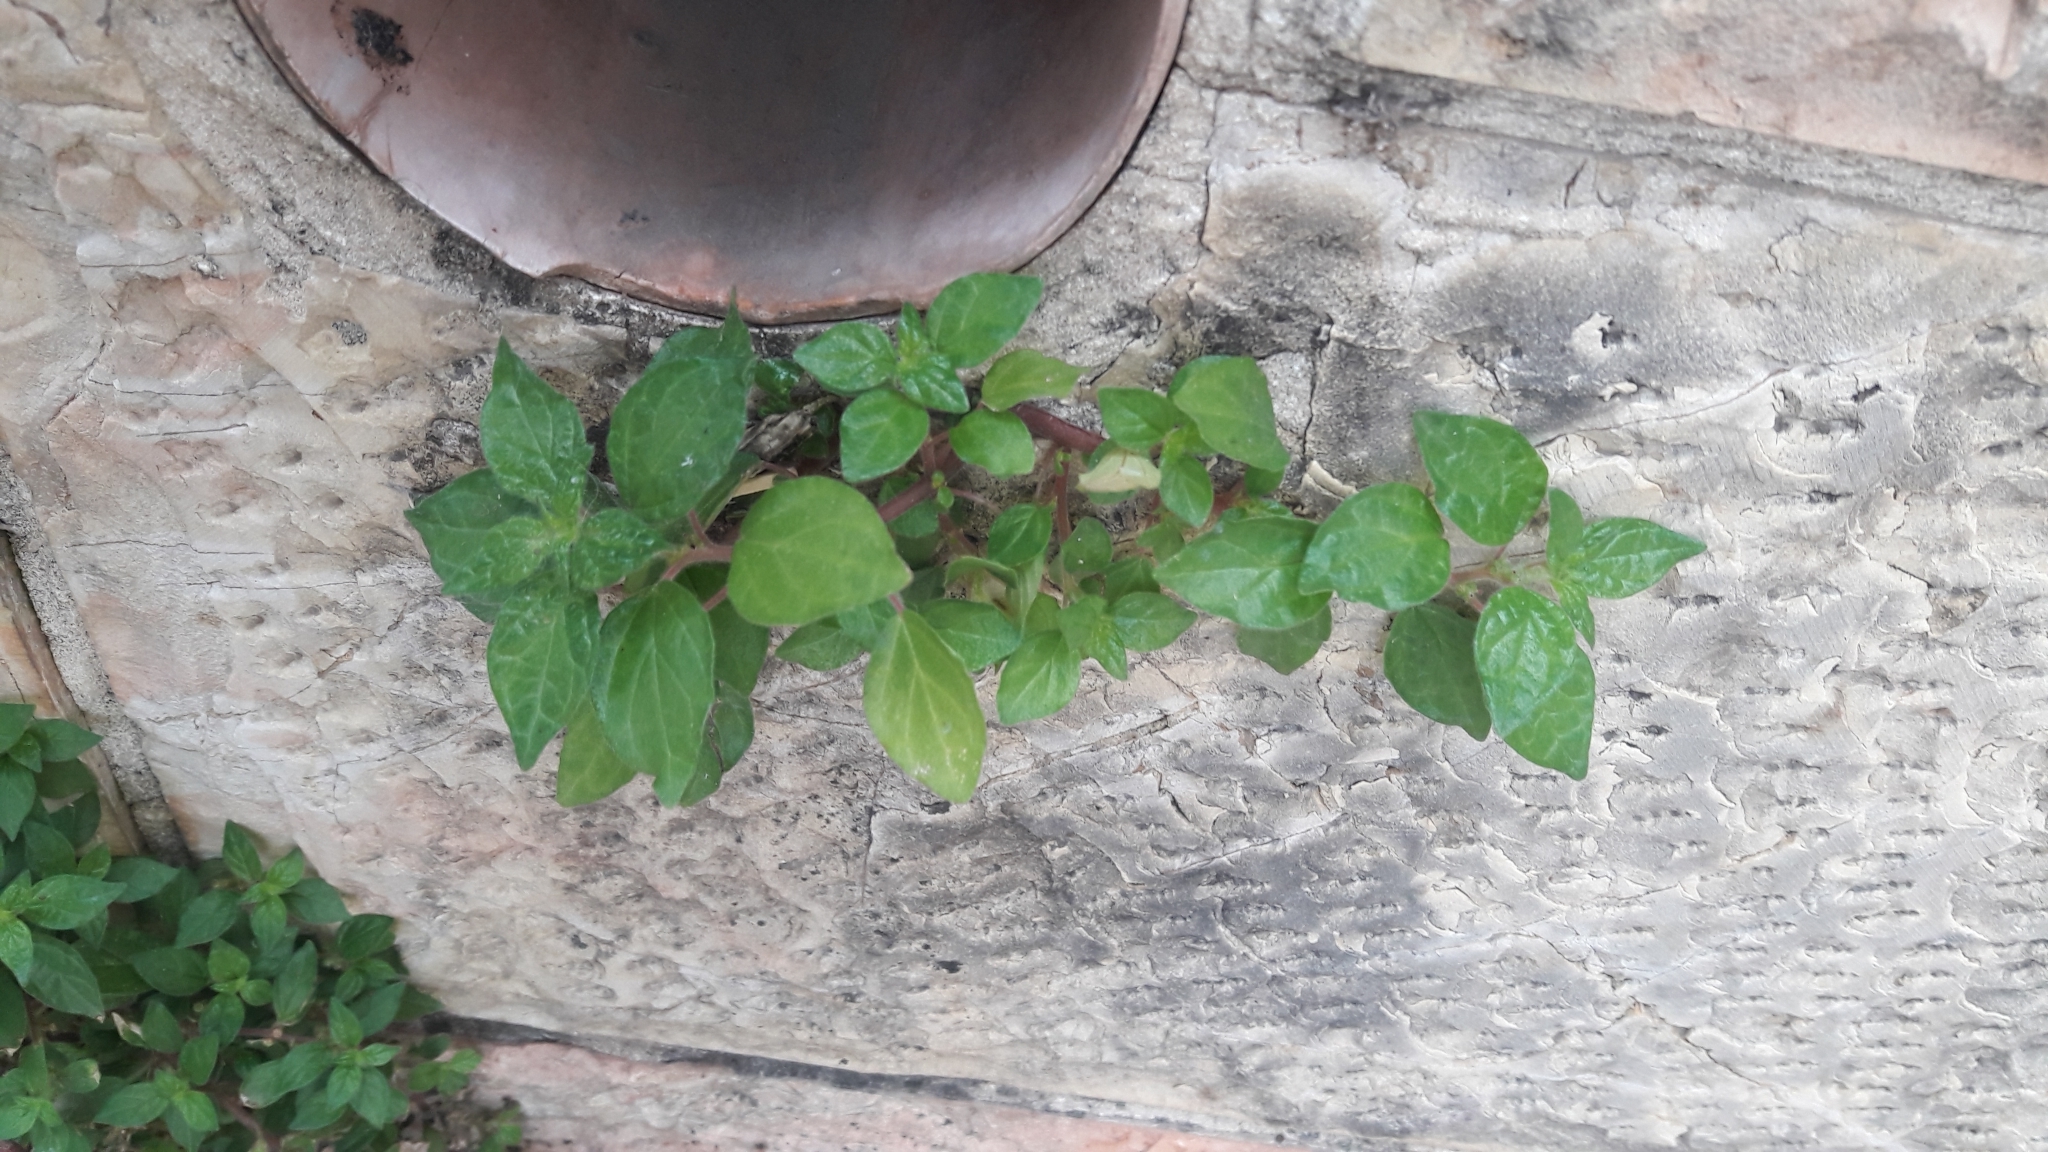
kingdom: Plantae
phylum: Tracheophyta
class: Magnoliopsida
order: Rosales
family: Urticaceae
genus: Parietaria
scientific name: Parietaria judaica
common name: Pellitory-of-the-wall
